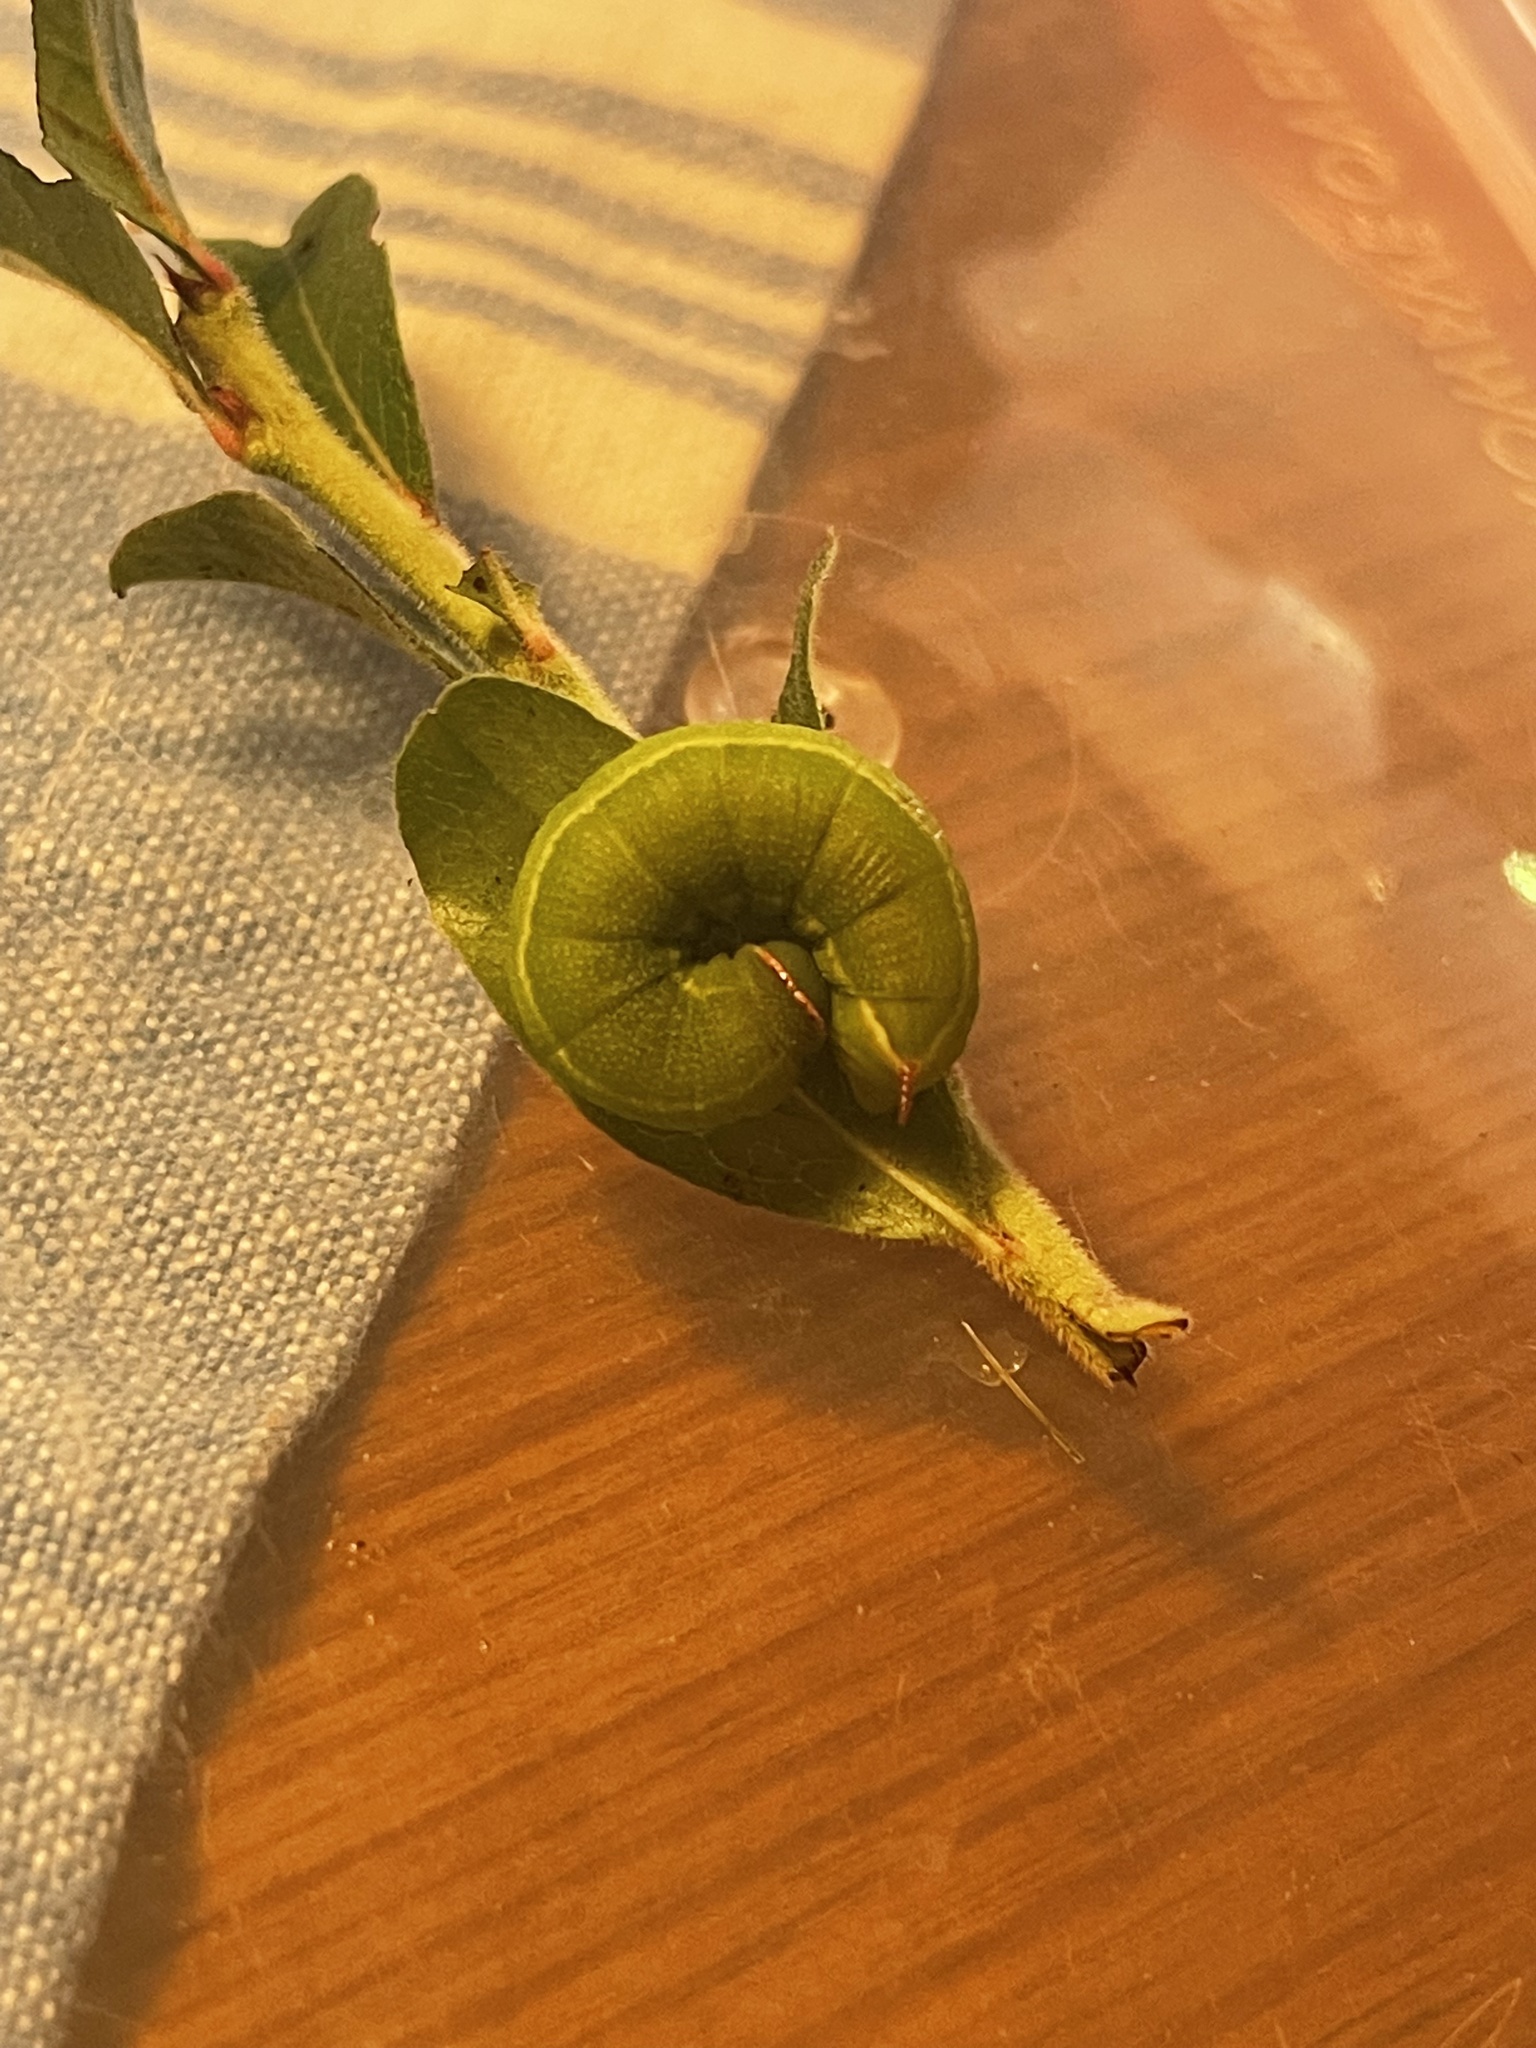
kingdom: Animalia
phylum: Arthropoda
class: Insecta
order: Lepidoptera
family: Sphingidae
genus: Hemaris
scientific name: Hemaris gracilis
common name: Graceful clearwing
